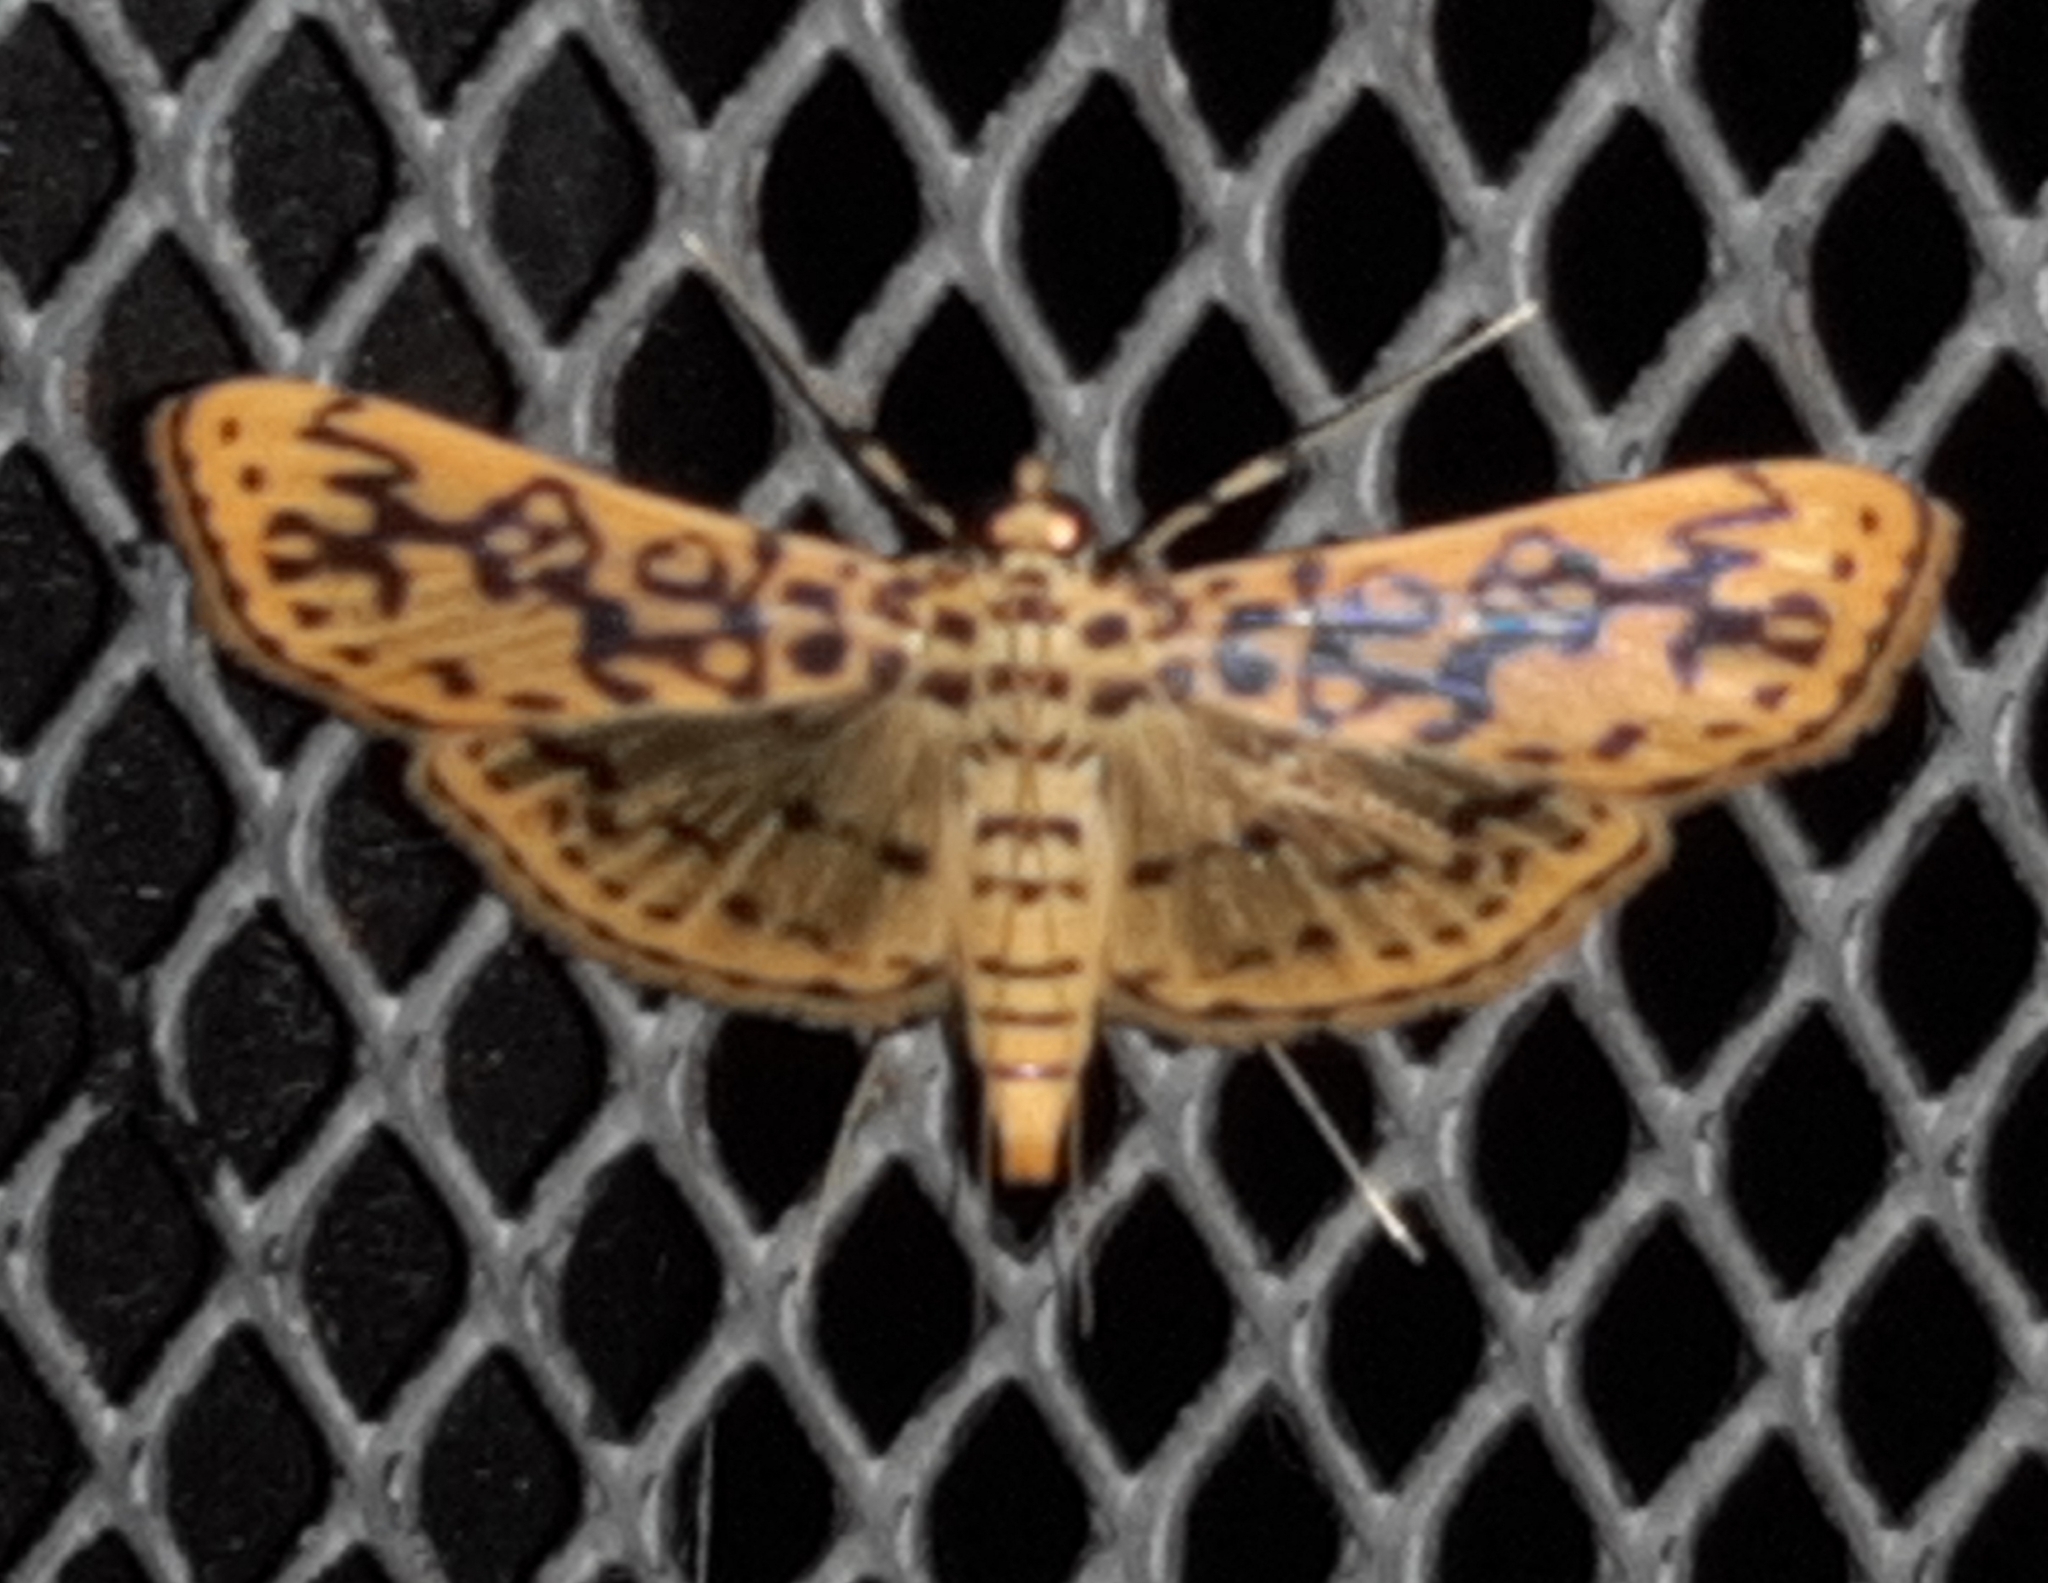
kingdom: Animalia
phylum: Arthropoda
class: Insecta
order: Lepidoptera
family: Crambidae
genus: Asturodes
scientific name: Asturodes fimbriauralis
